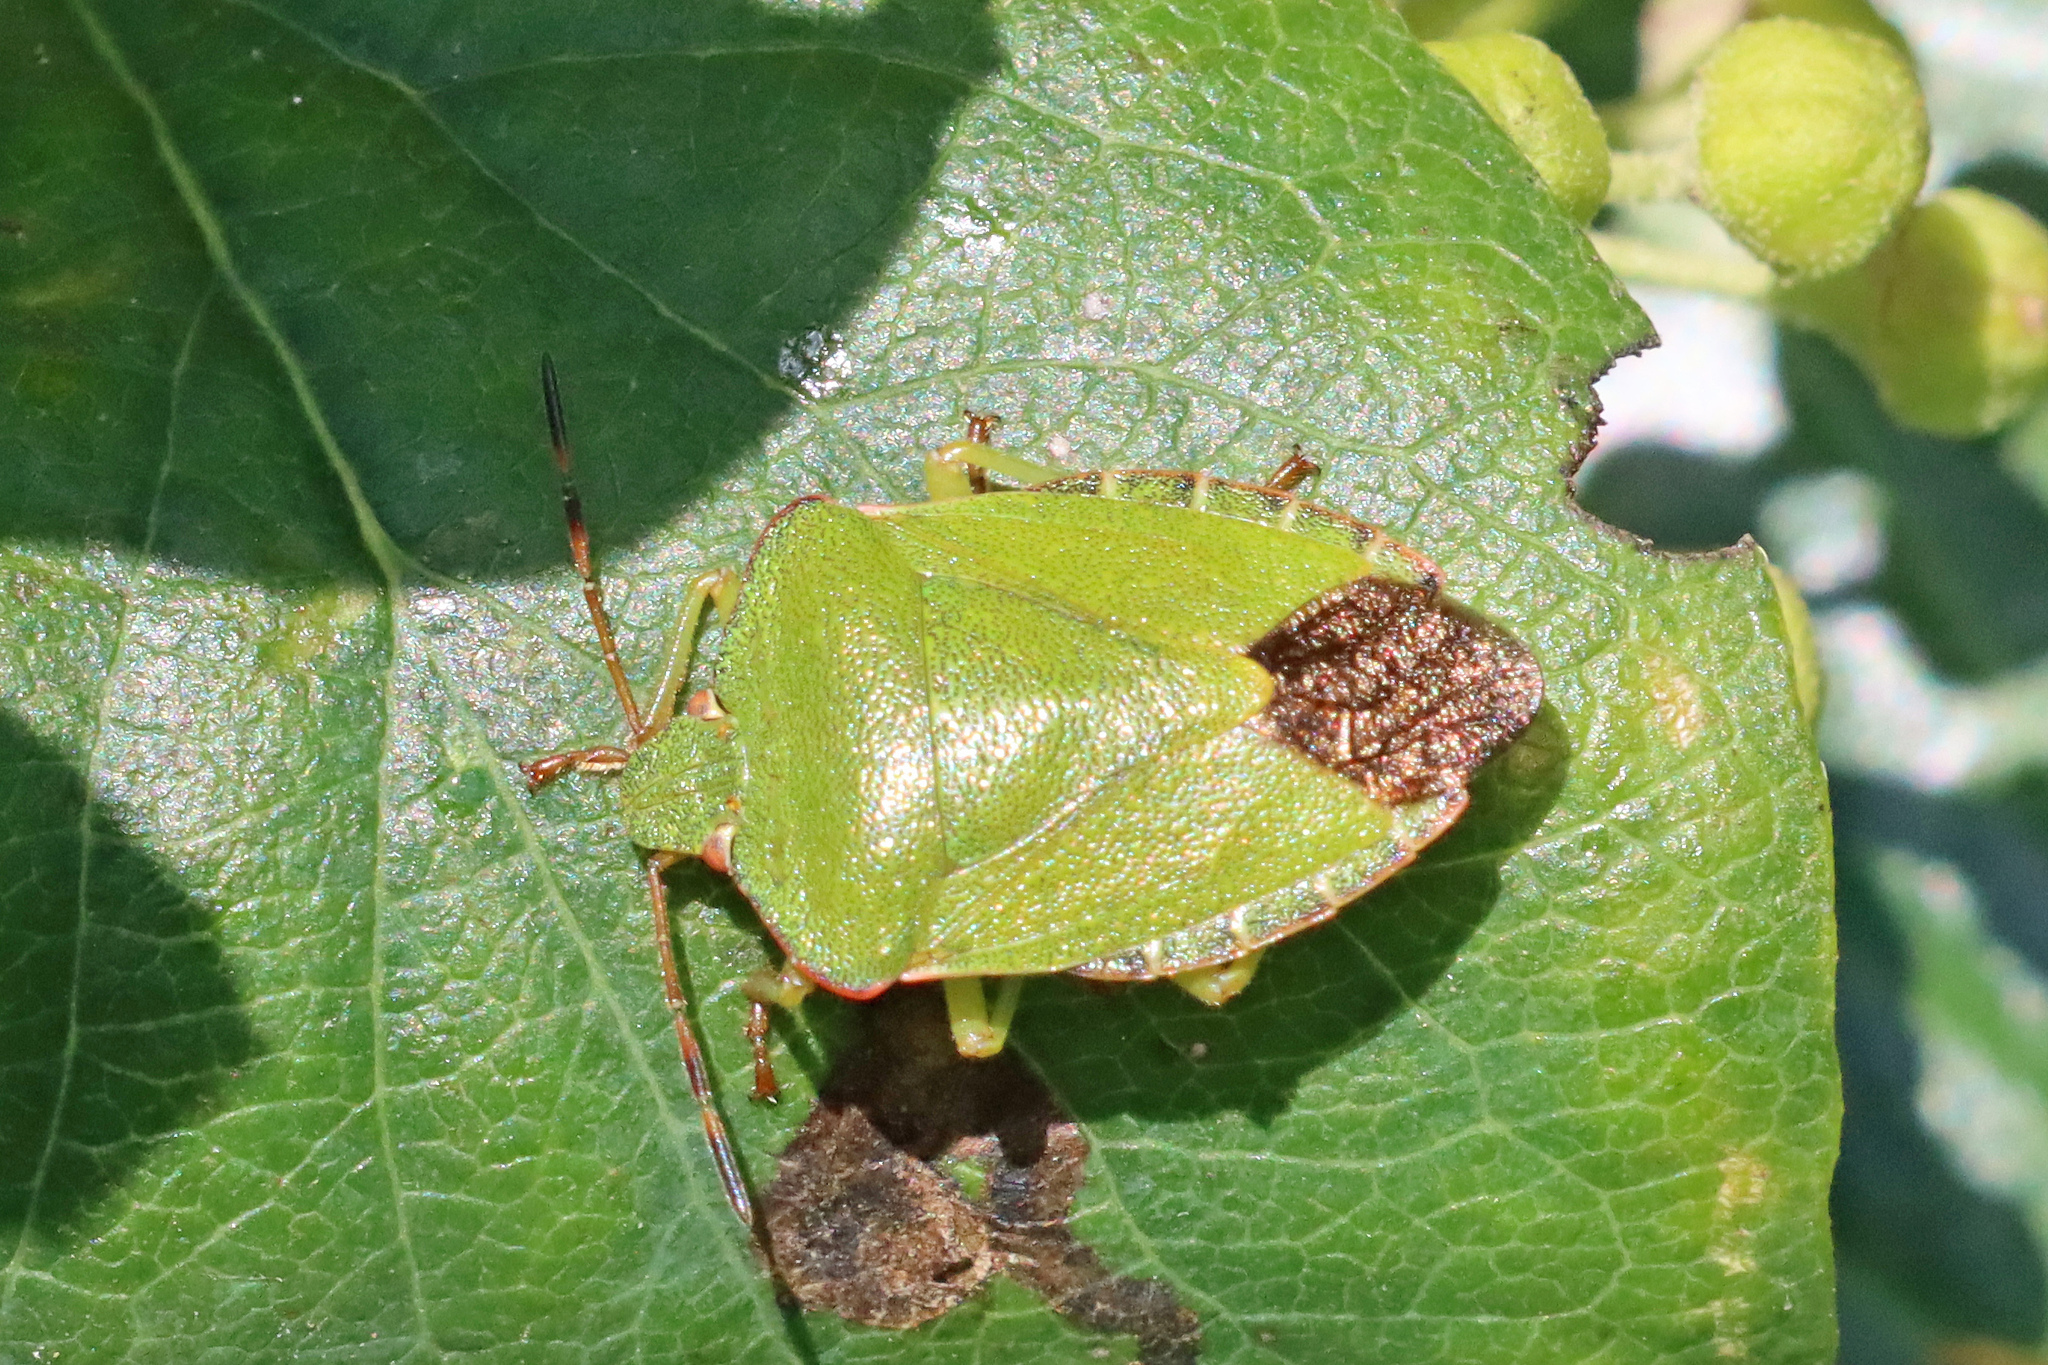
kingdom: Animalia
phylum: Arthropoda
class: Insecta
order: Hemiptera
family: Pentatomidae
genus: Palomena
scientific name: Palomena prasina
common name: Green shieldbug
